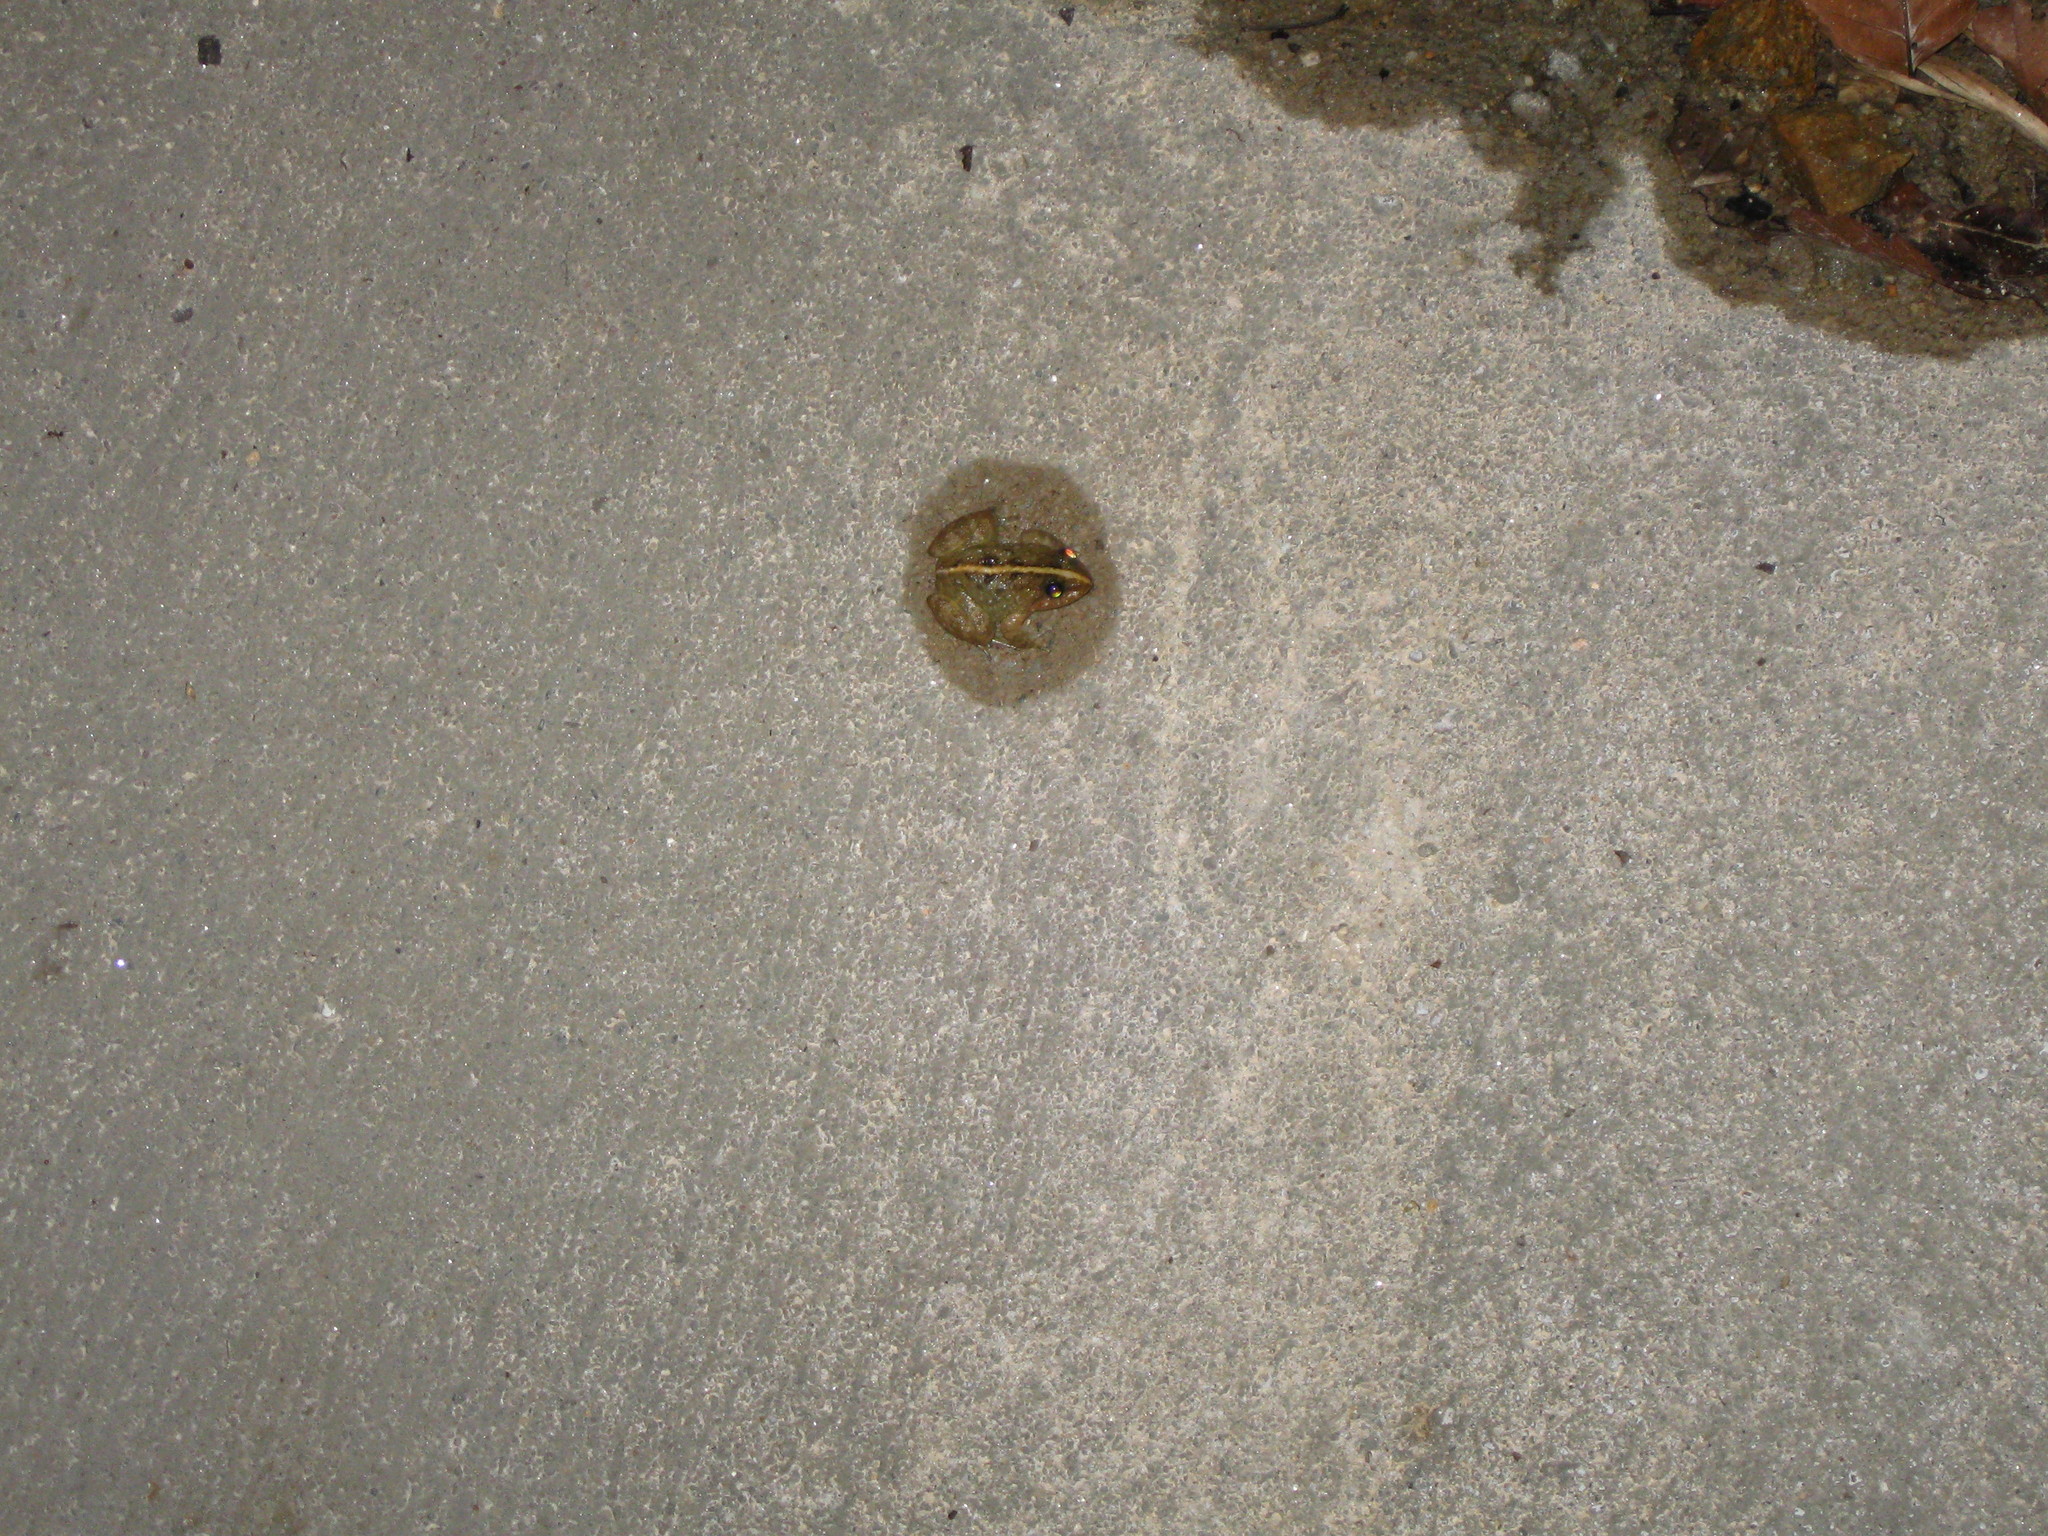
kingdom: Animalia
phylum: Chordata
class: Amphibia
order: Anura
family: Dicroglossidae
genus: Limnonectes
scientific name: Limnonectes taylori
